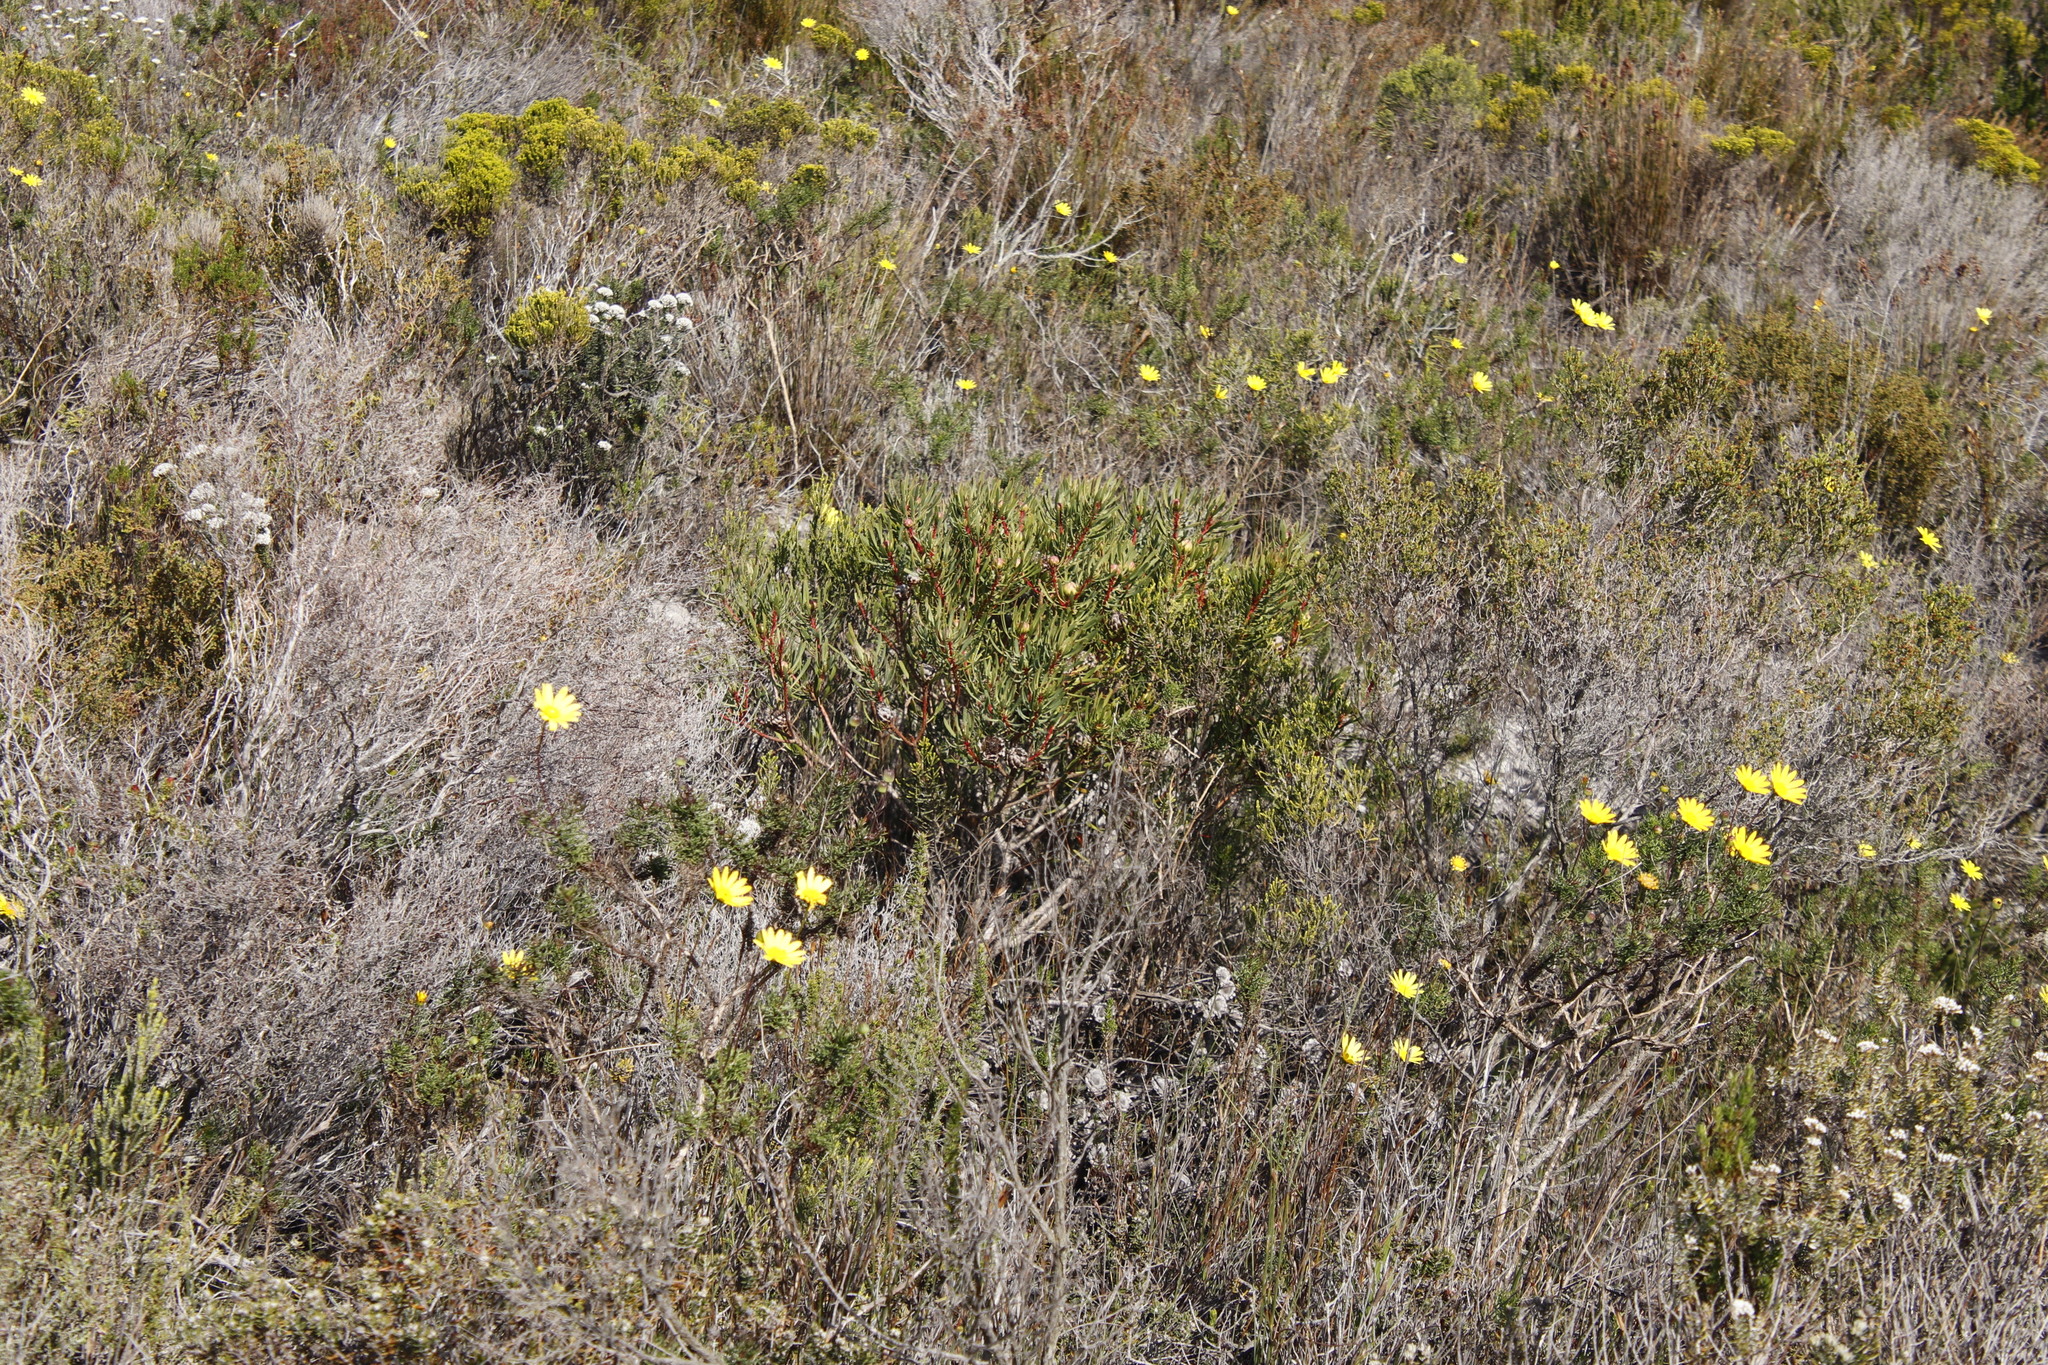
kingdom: Plantae
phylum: Tracheophyta
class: Magnoliopsida
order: Proteales
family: Proteaceae
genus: Protea
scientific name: Protea scolymocephala
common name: Thistle sugarbush
